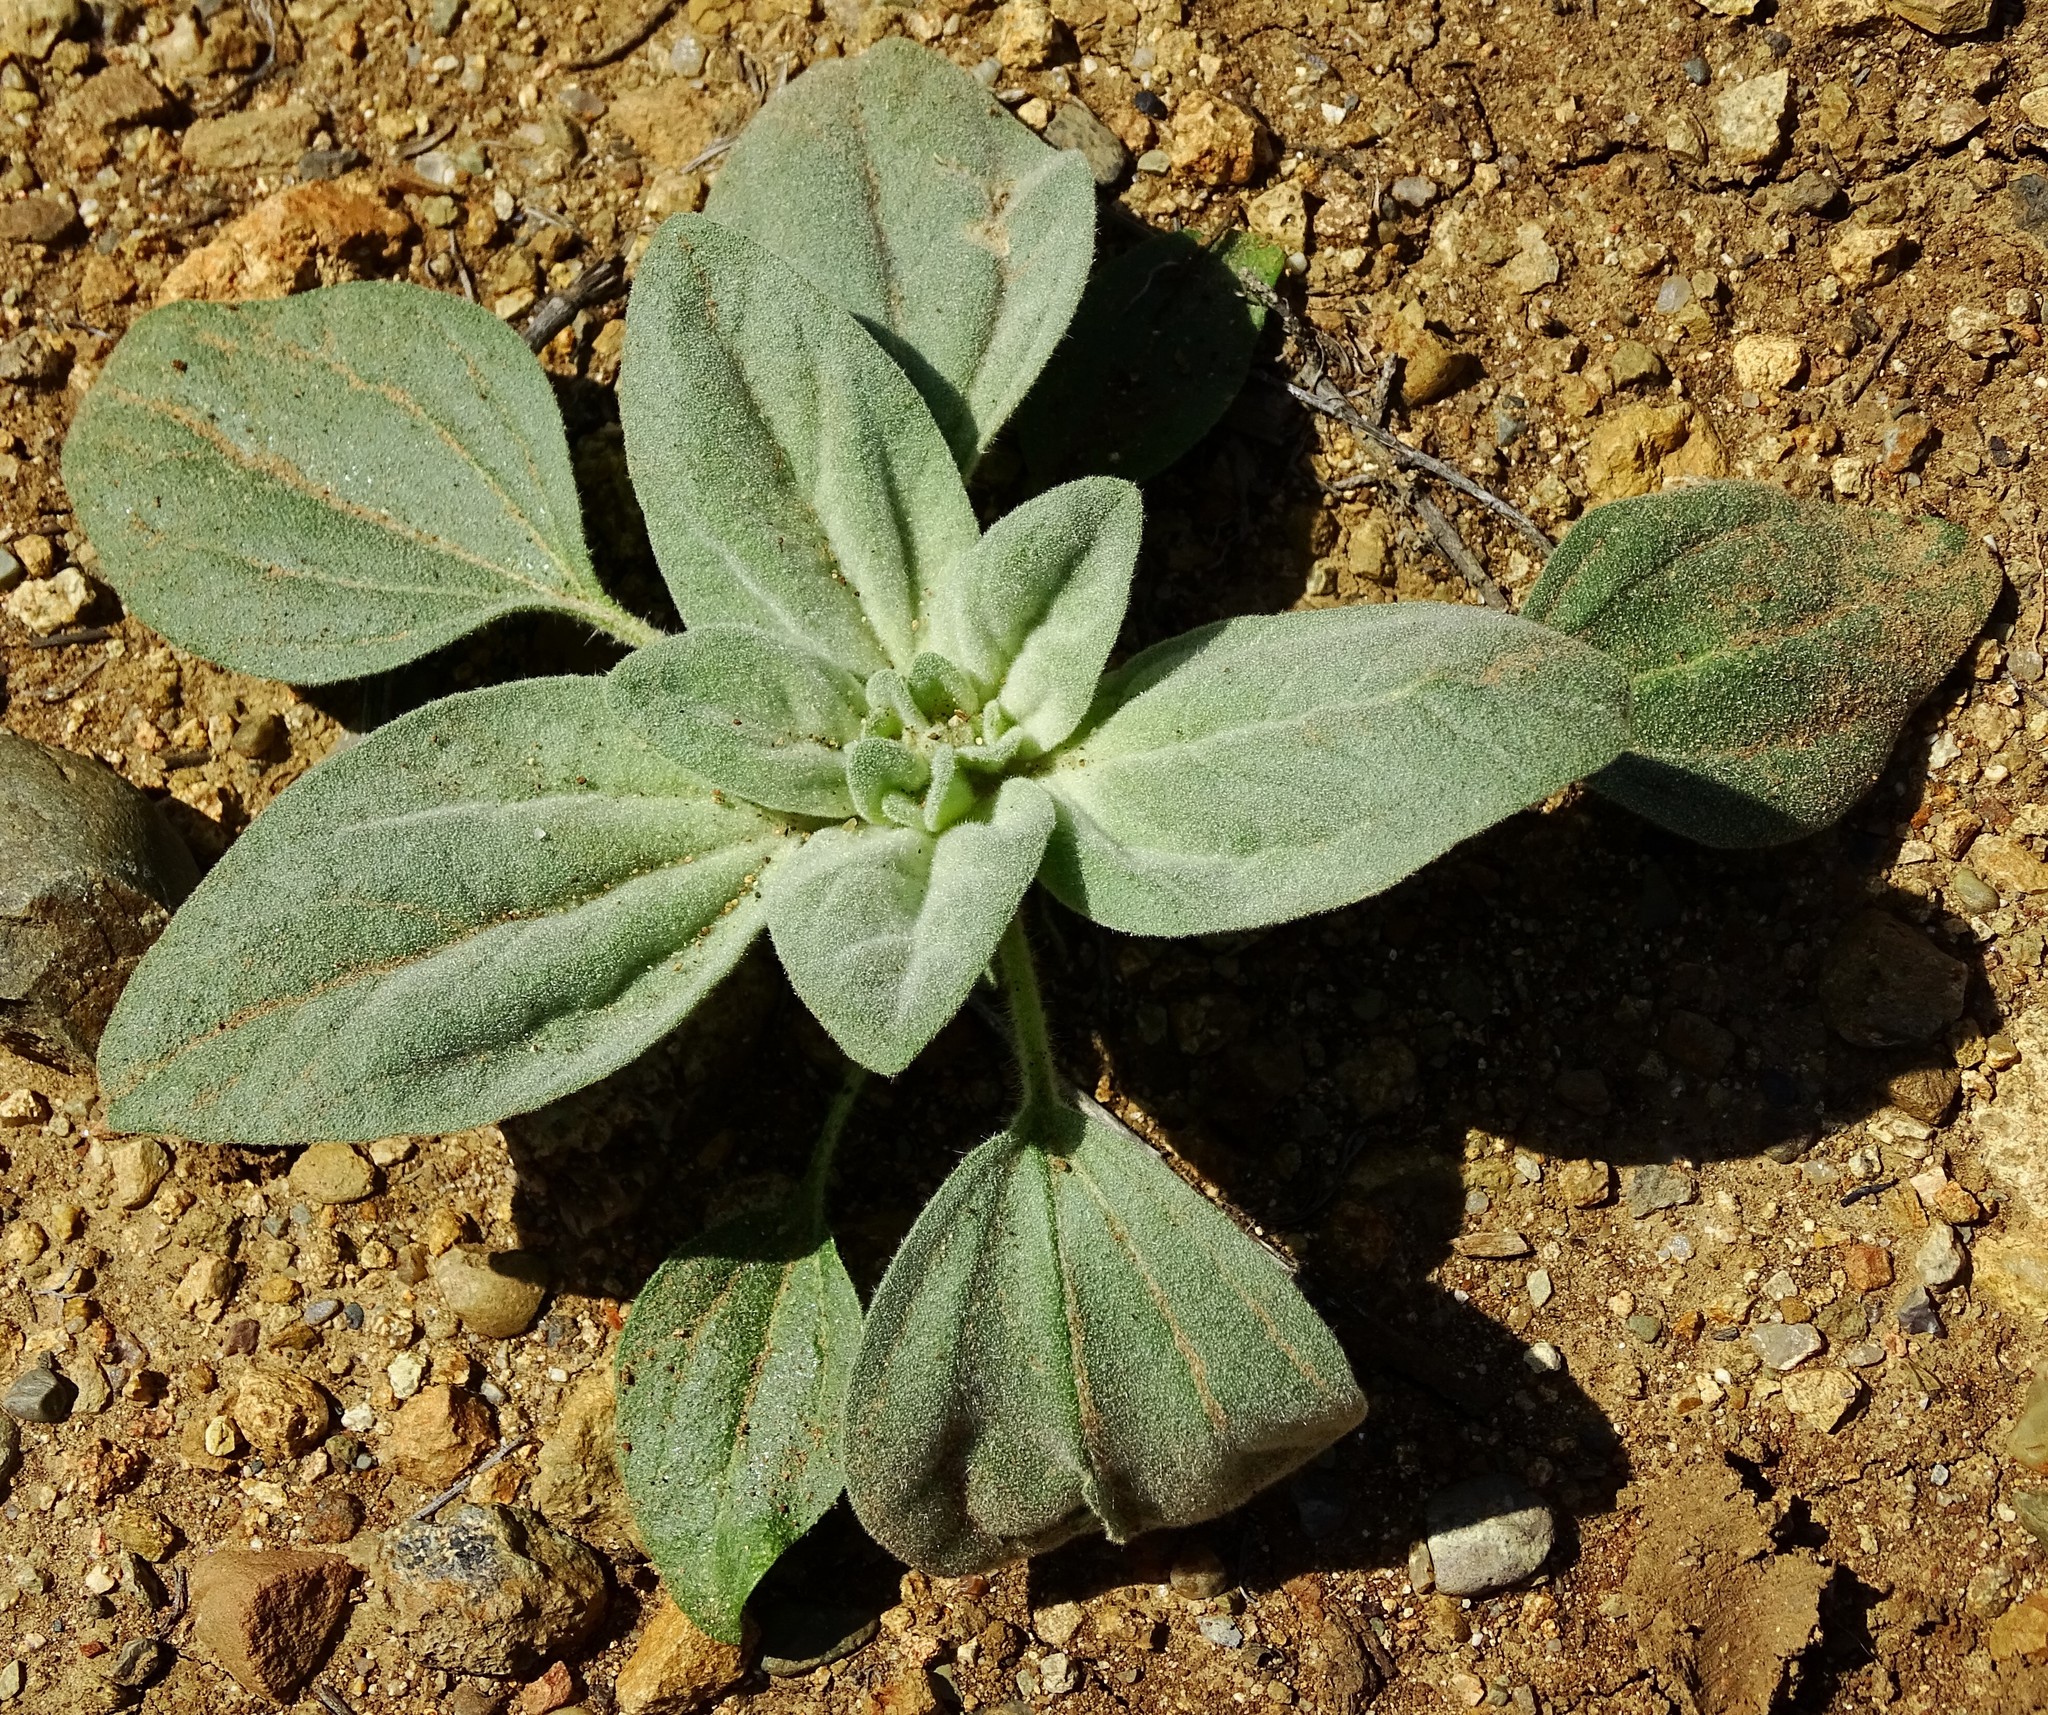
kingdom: Plantae
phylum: Tracheophyta
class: Magnoliopsida
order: Malpighiales
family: Euphorbiaceae
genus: Croton
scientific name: Croton setiger
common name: Dove weed
